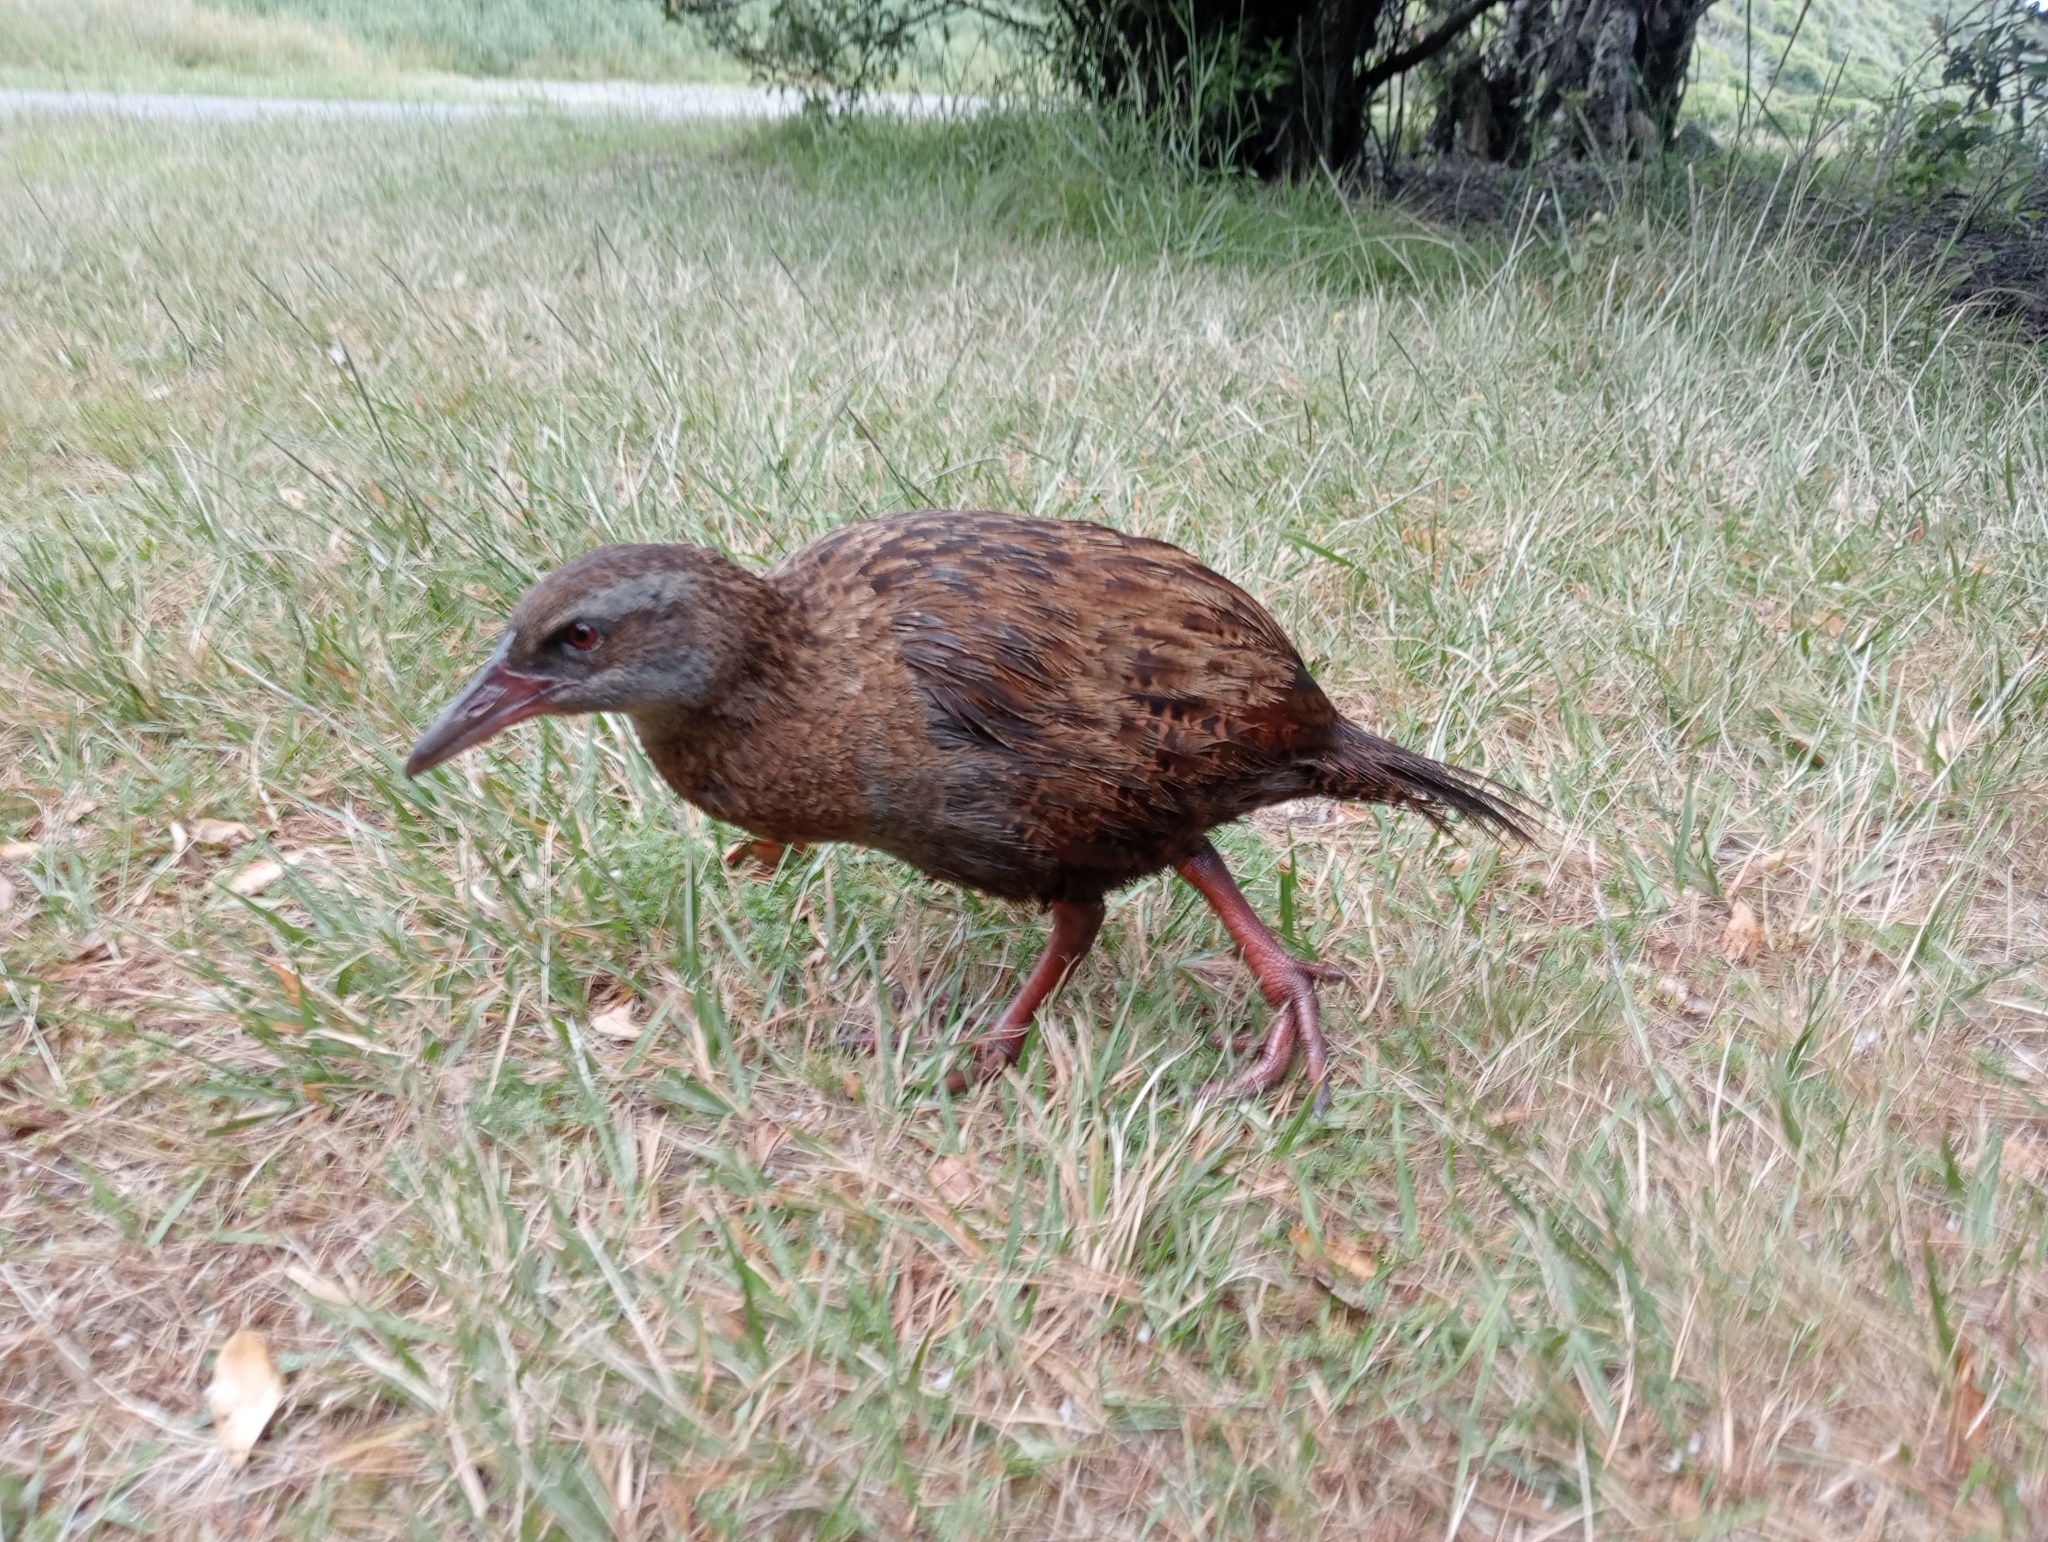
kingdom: Animalia
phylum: Chordata
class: Aves
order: Gruiformes
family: Rallidae
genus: Gallirallus
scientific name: Gallirallus australis
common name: Weka
